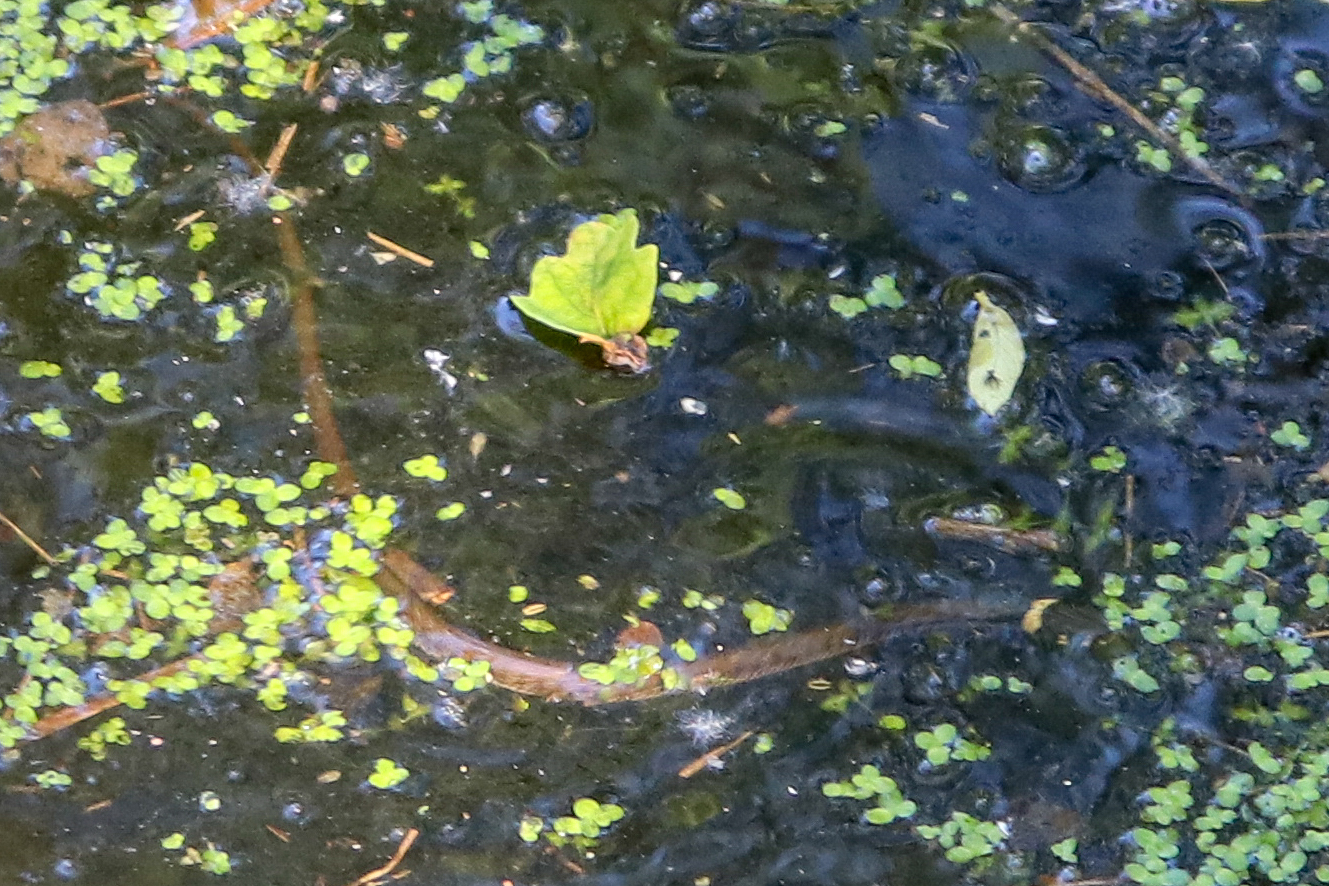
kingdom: Animalia
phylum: Chordata
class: Squamata
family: Colubridae
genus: Natrix
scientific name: Natrix natrix
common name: Grass snake
